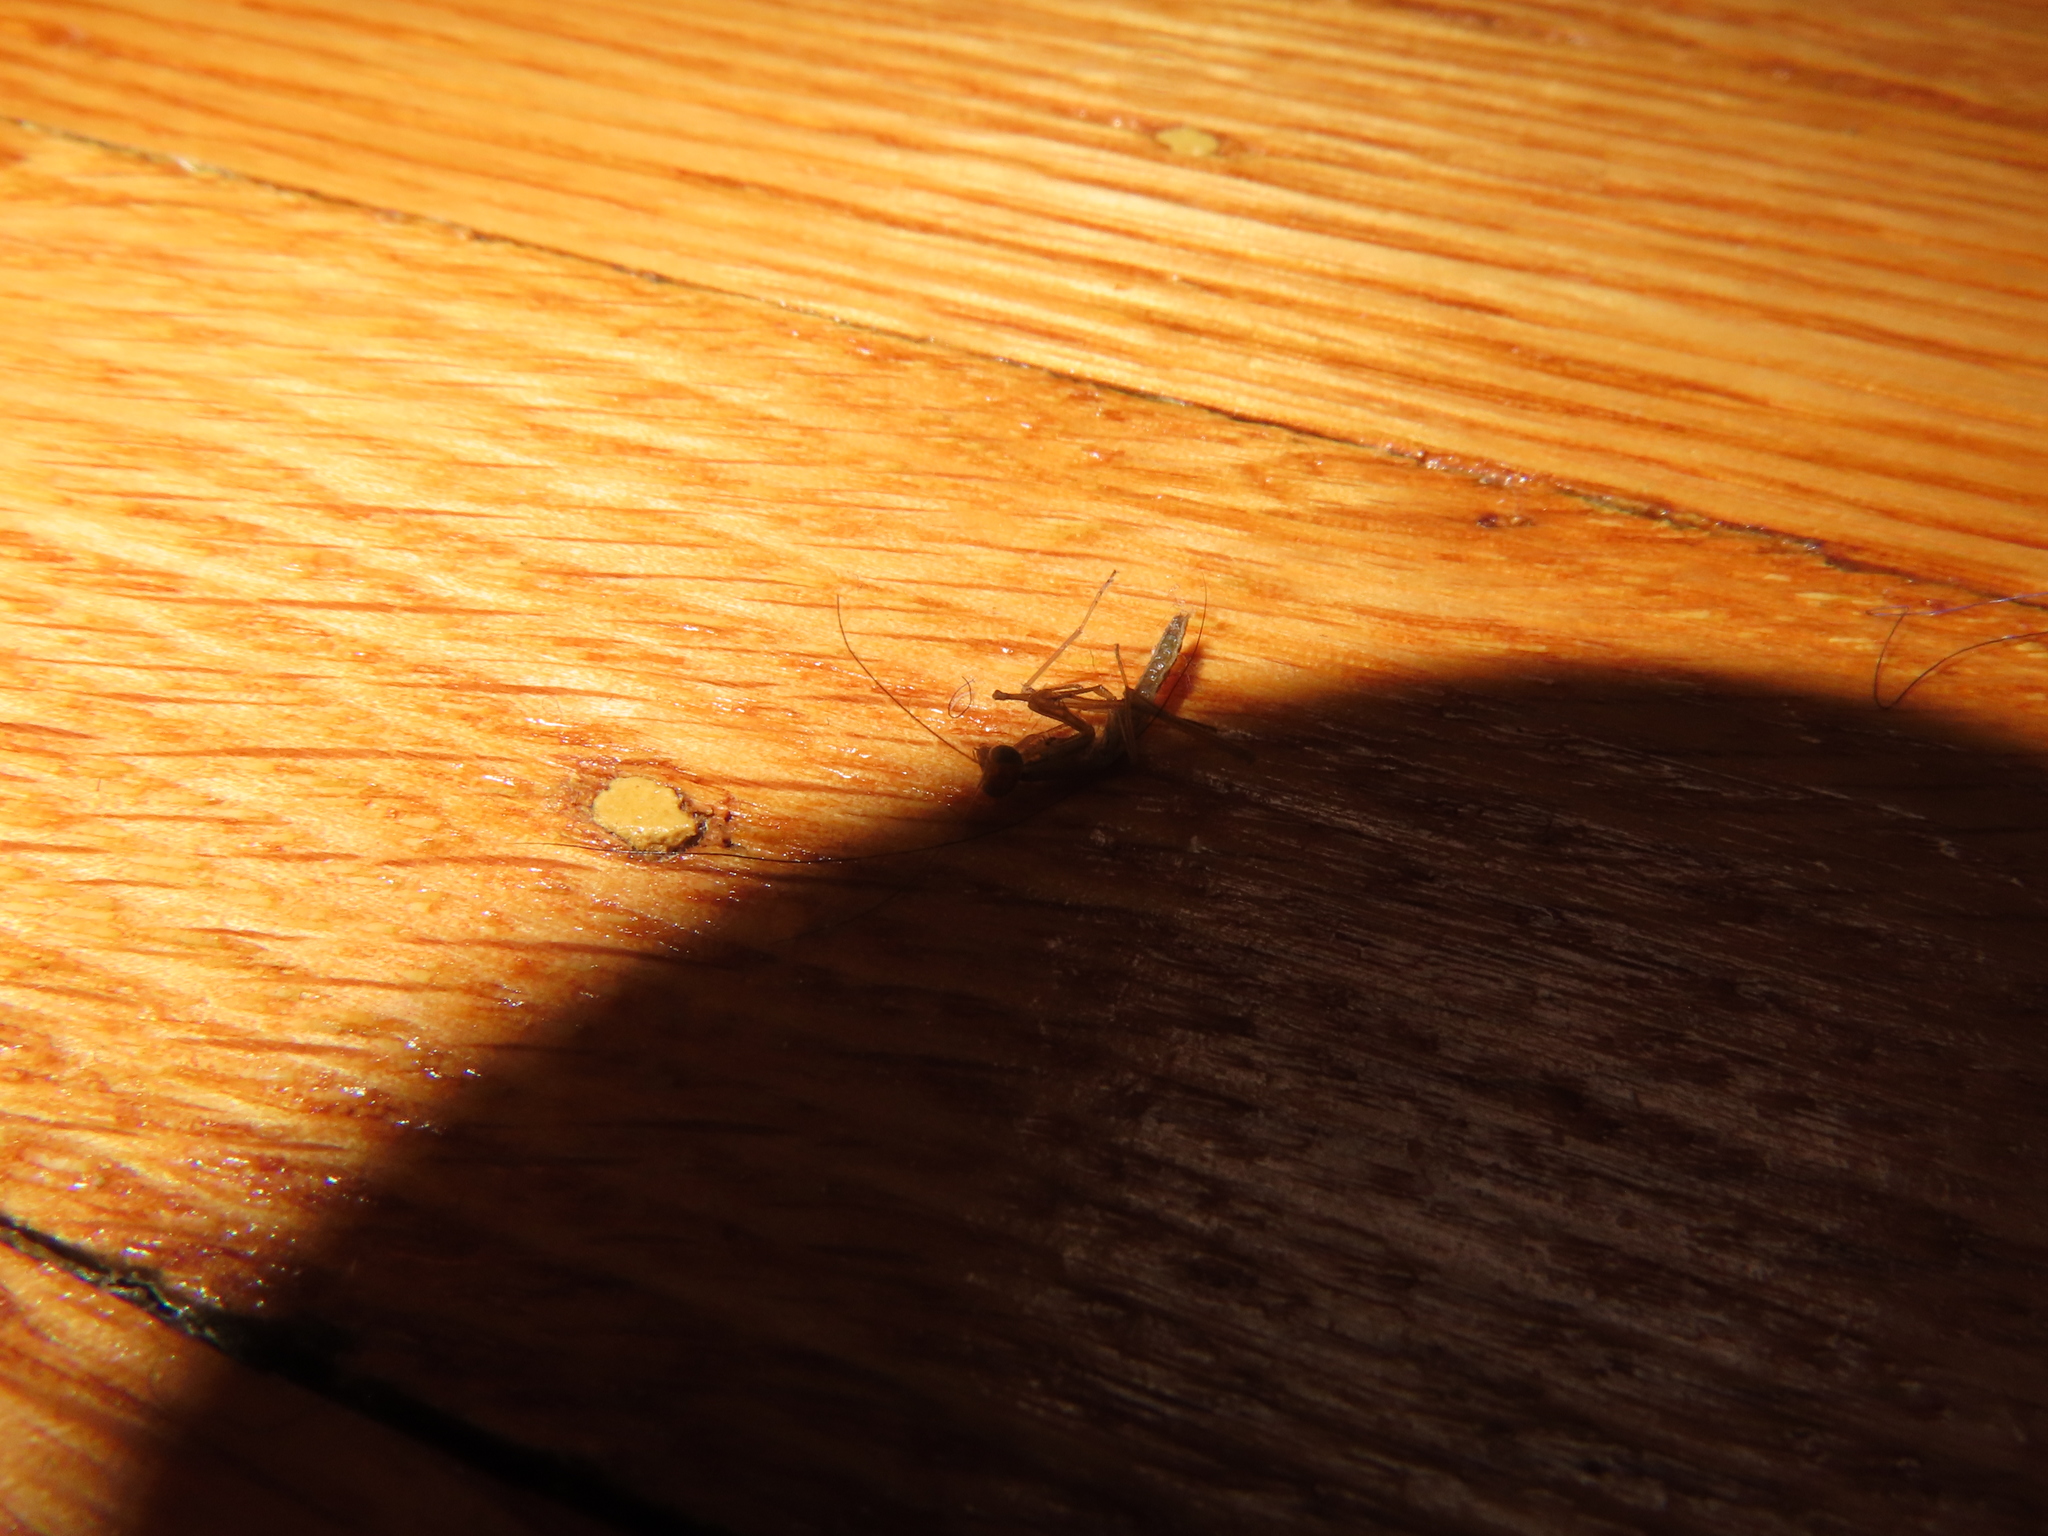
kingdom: Animalia
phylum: Arthropoda
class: Insecta
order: Mantodea
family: Mantidae
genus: Tenodera
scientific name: Tenodera sinensis
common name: Chinese mantis
